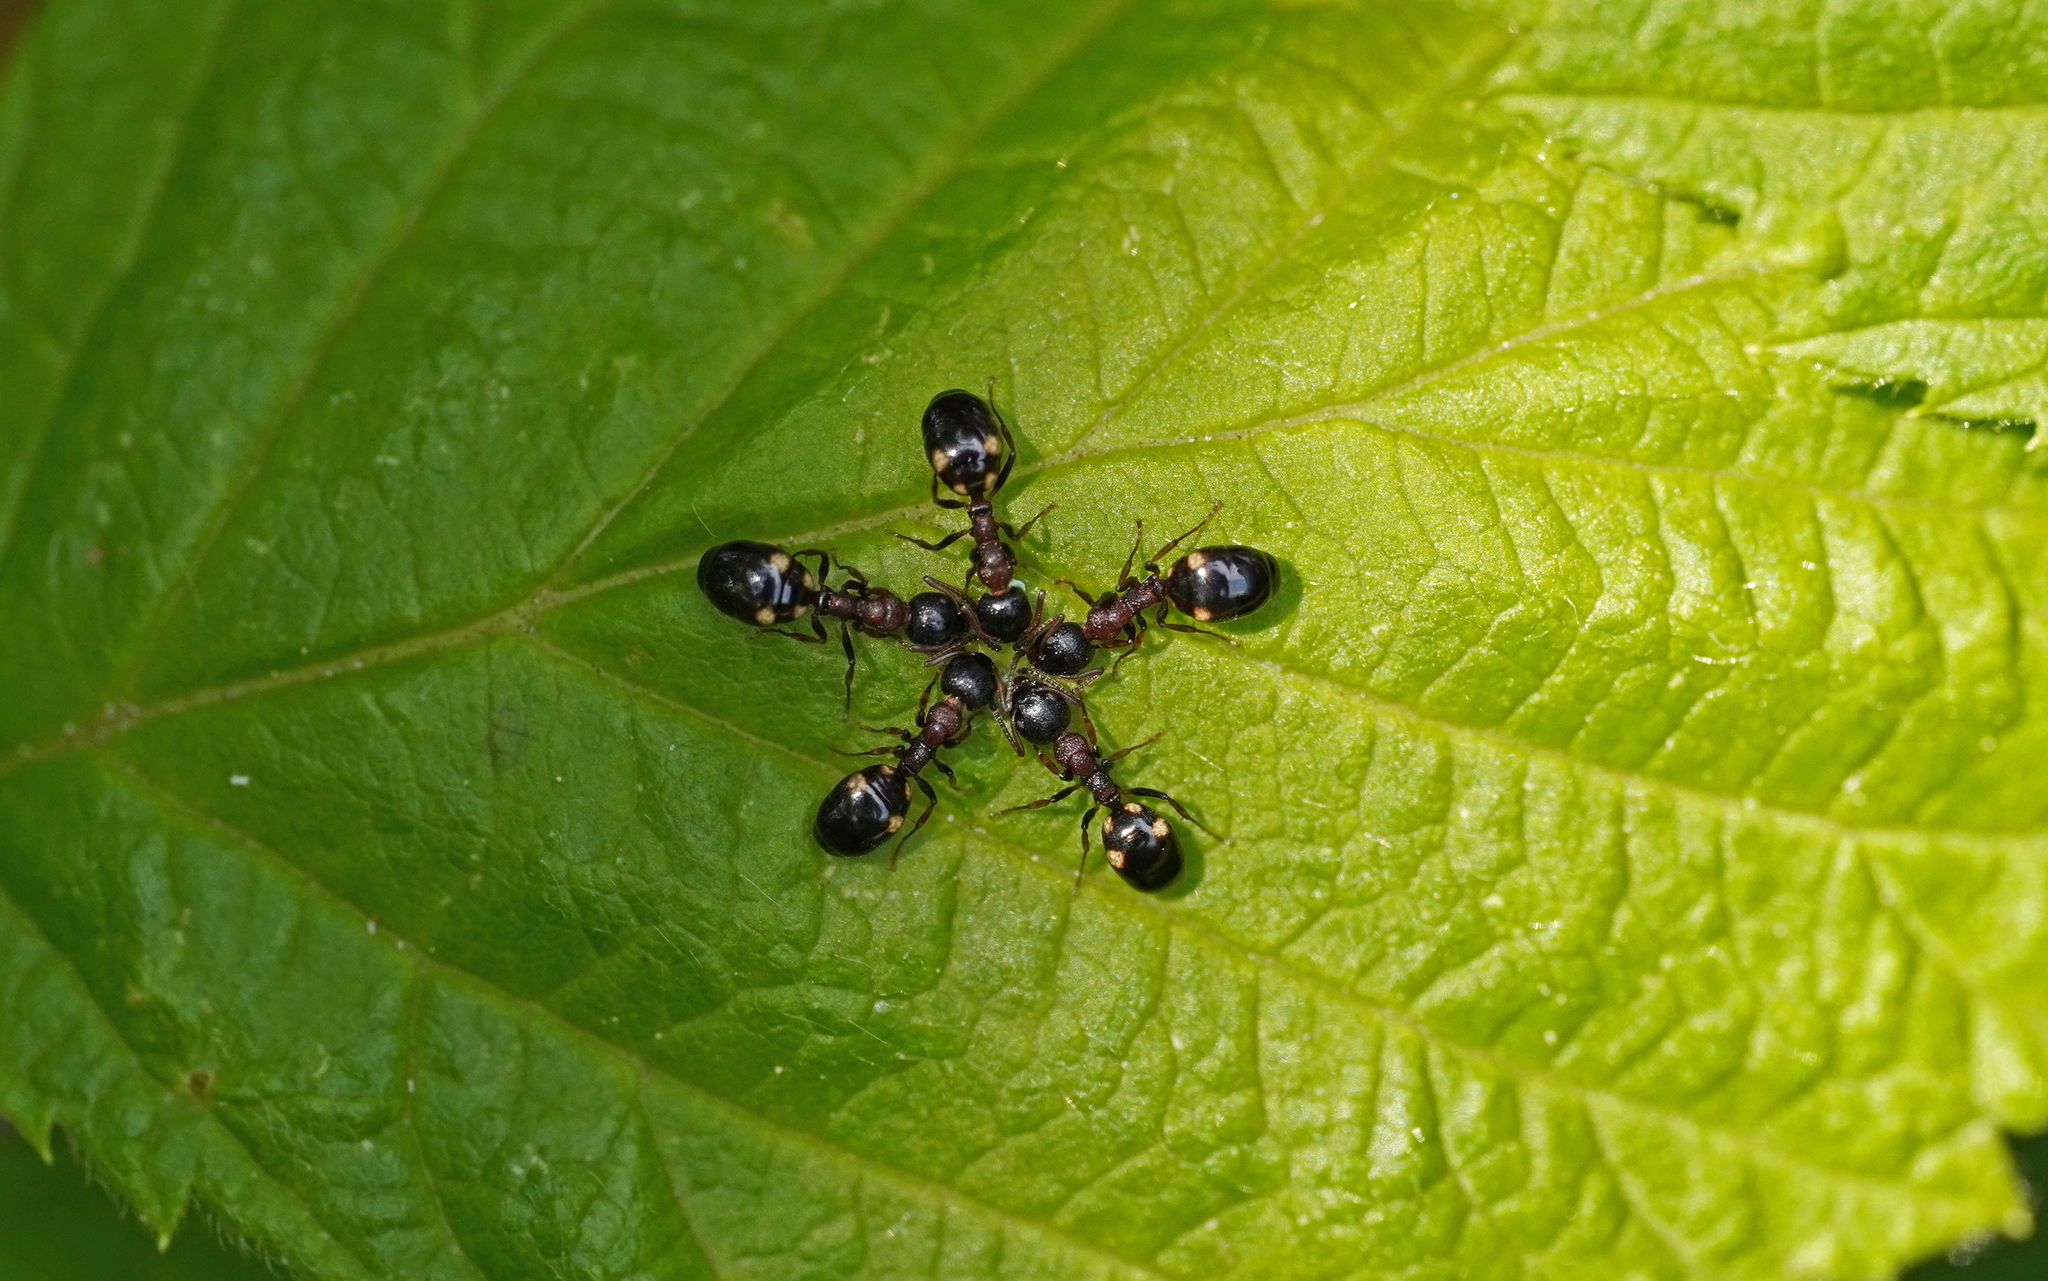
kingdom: Animalia
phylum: Arthropoda
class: Insecta
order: Hymenoptera
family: Formicidae
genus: Dolichoderus
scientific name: Dolichoderus quadripunctatus
